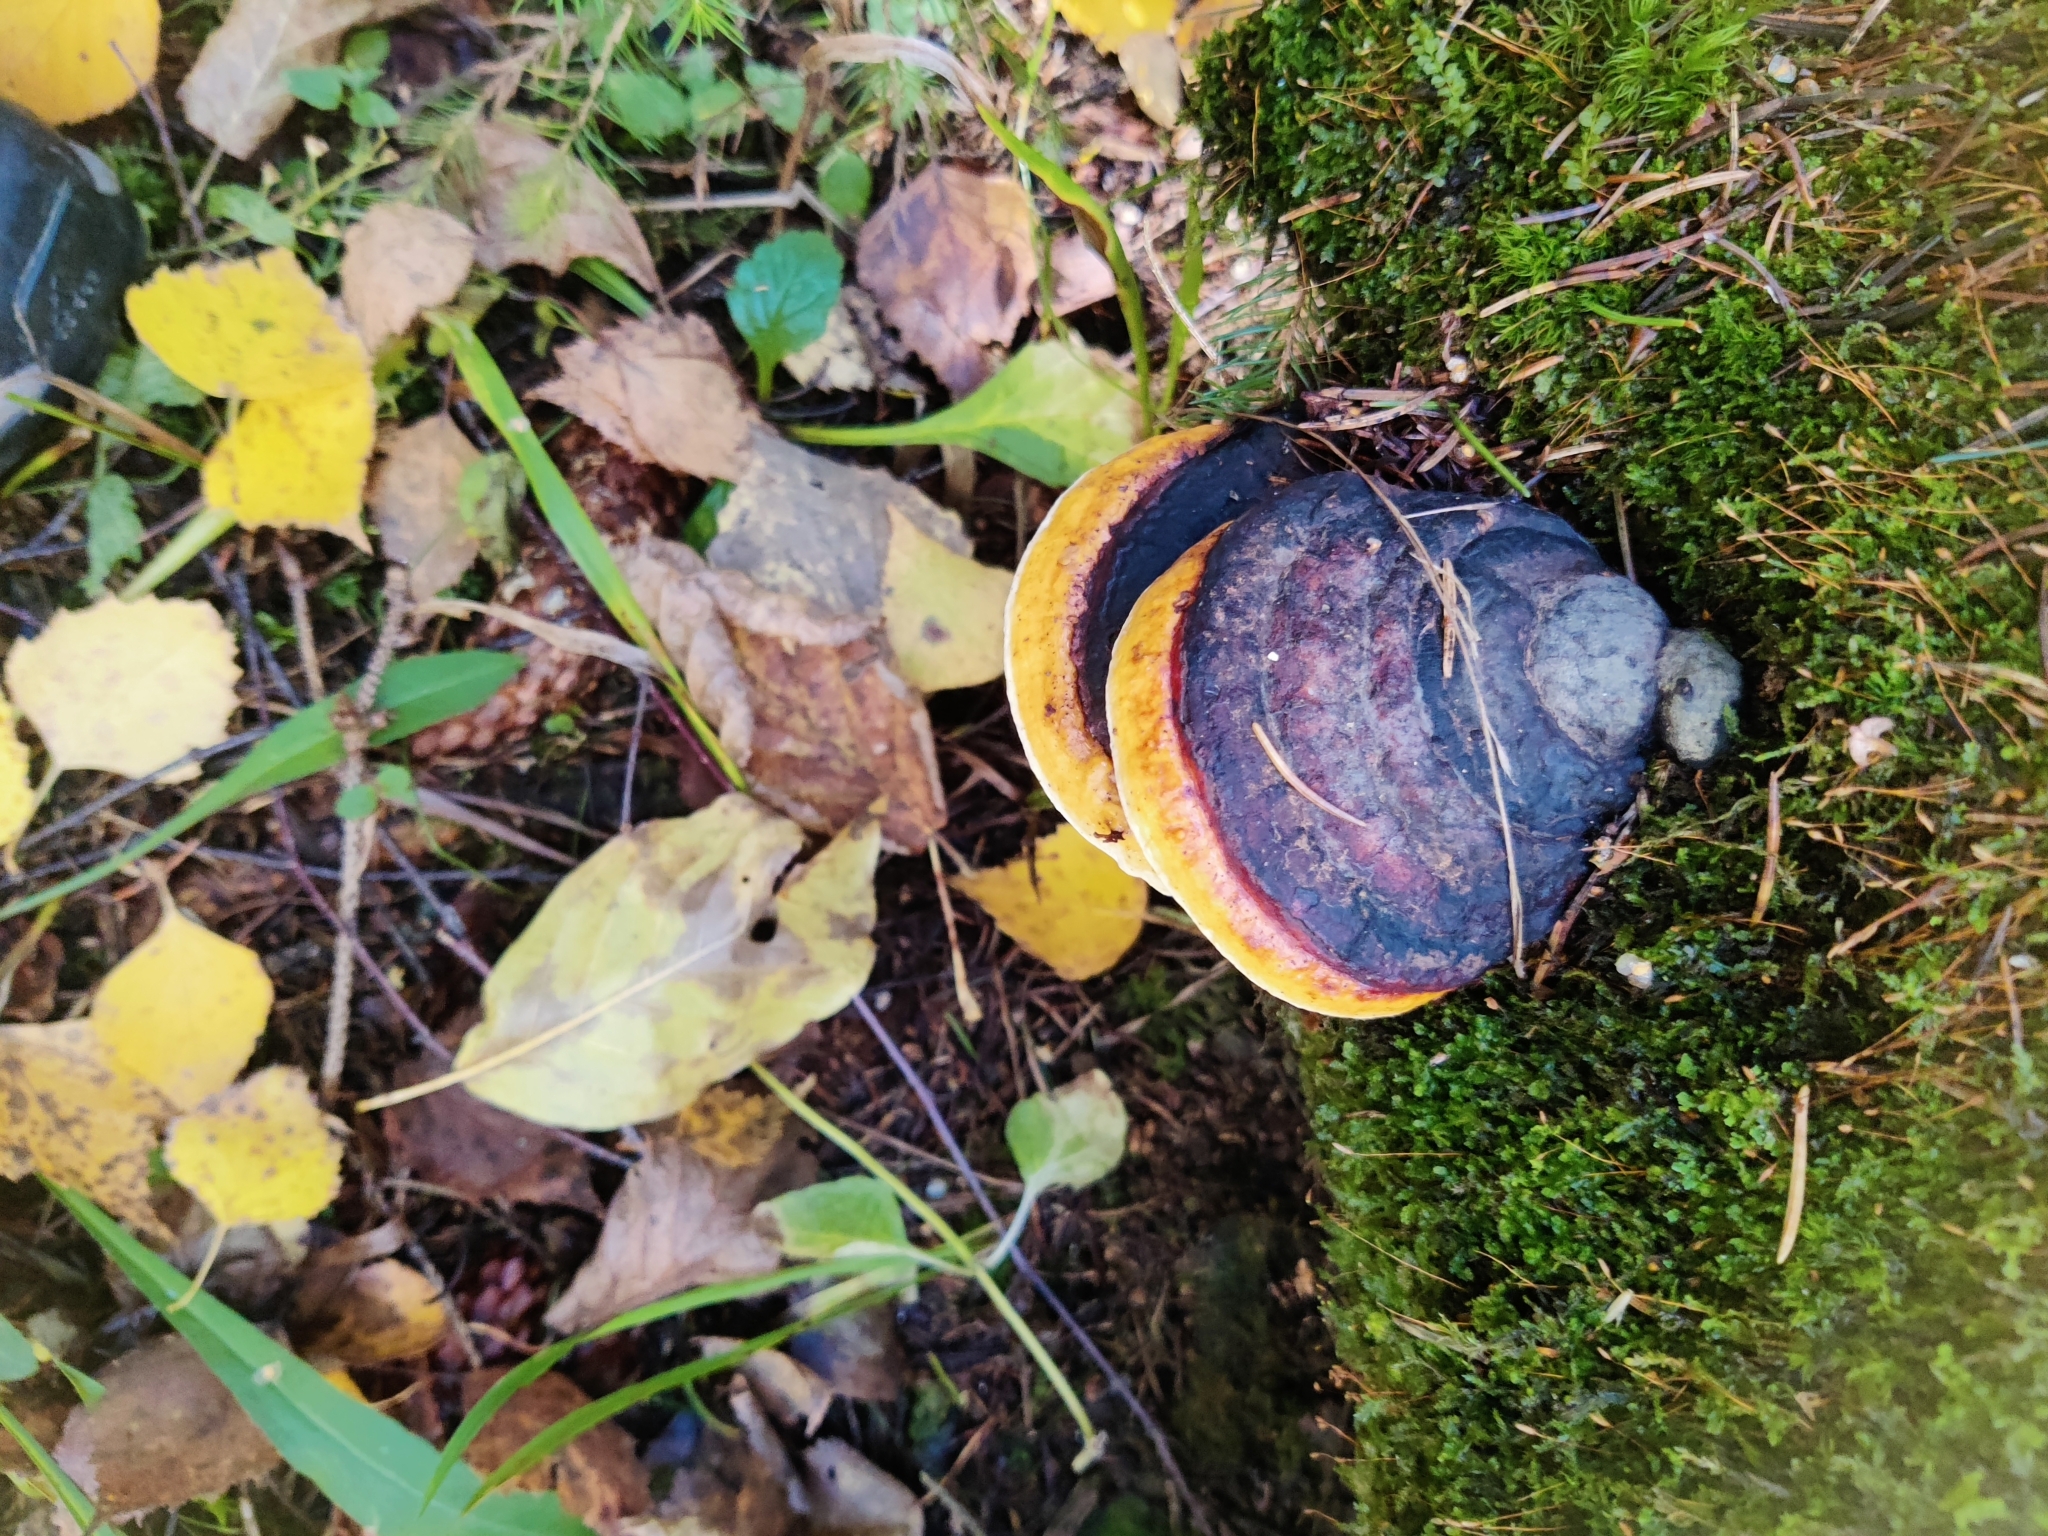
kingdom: Fungi
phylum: Basidiomycota
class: Agaricomycetes
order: Polyporales
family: Fomitopsidaceae
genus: Fomitopsis
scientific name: Fomitopsis pinicola
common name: Red-belted bracket
